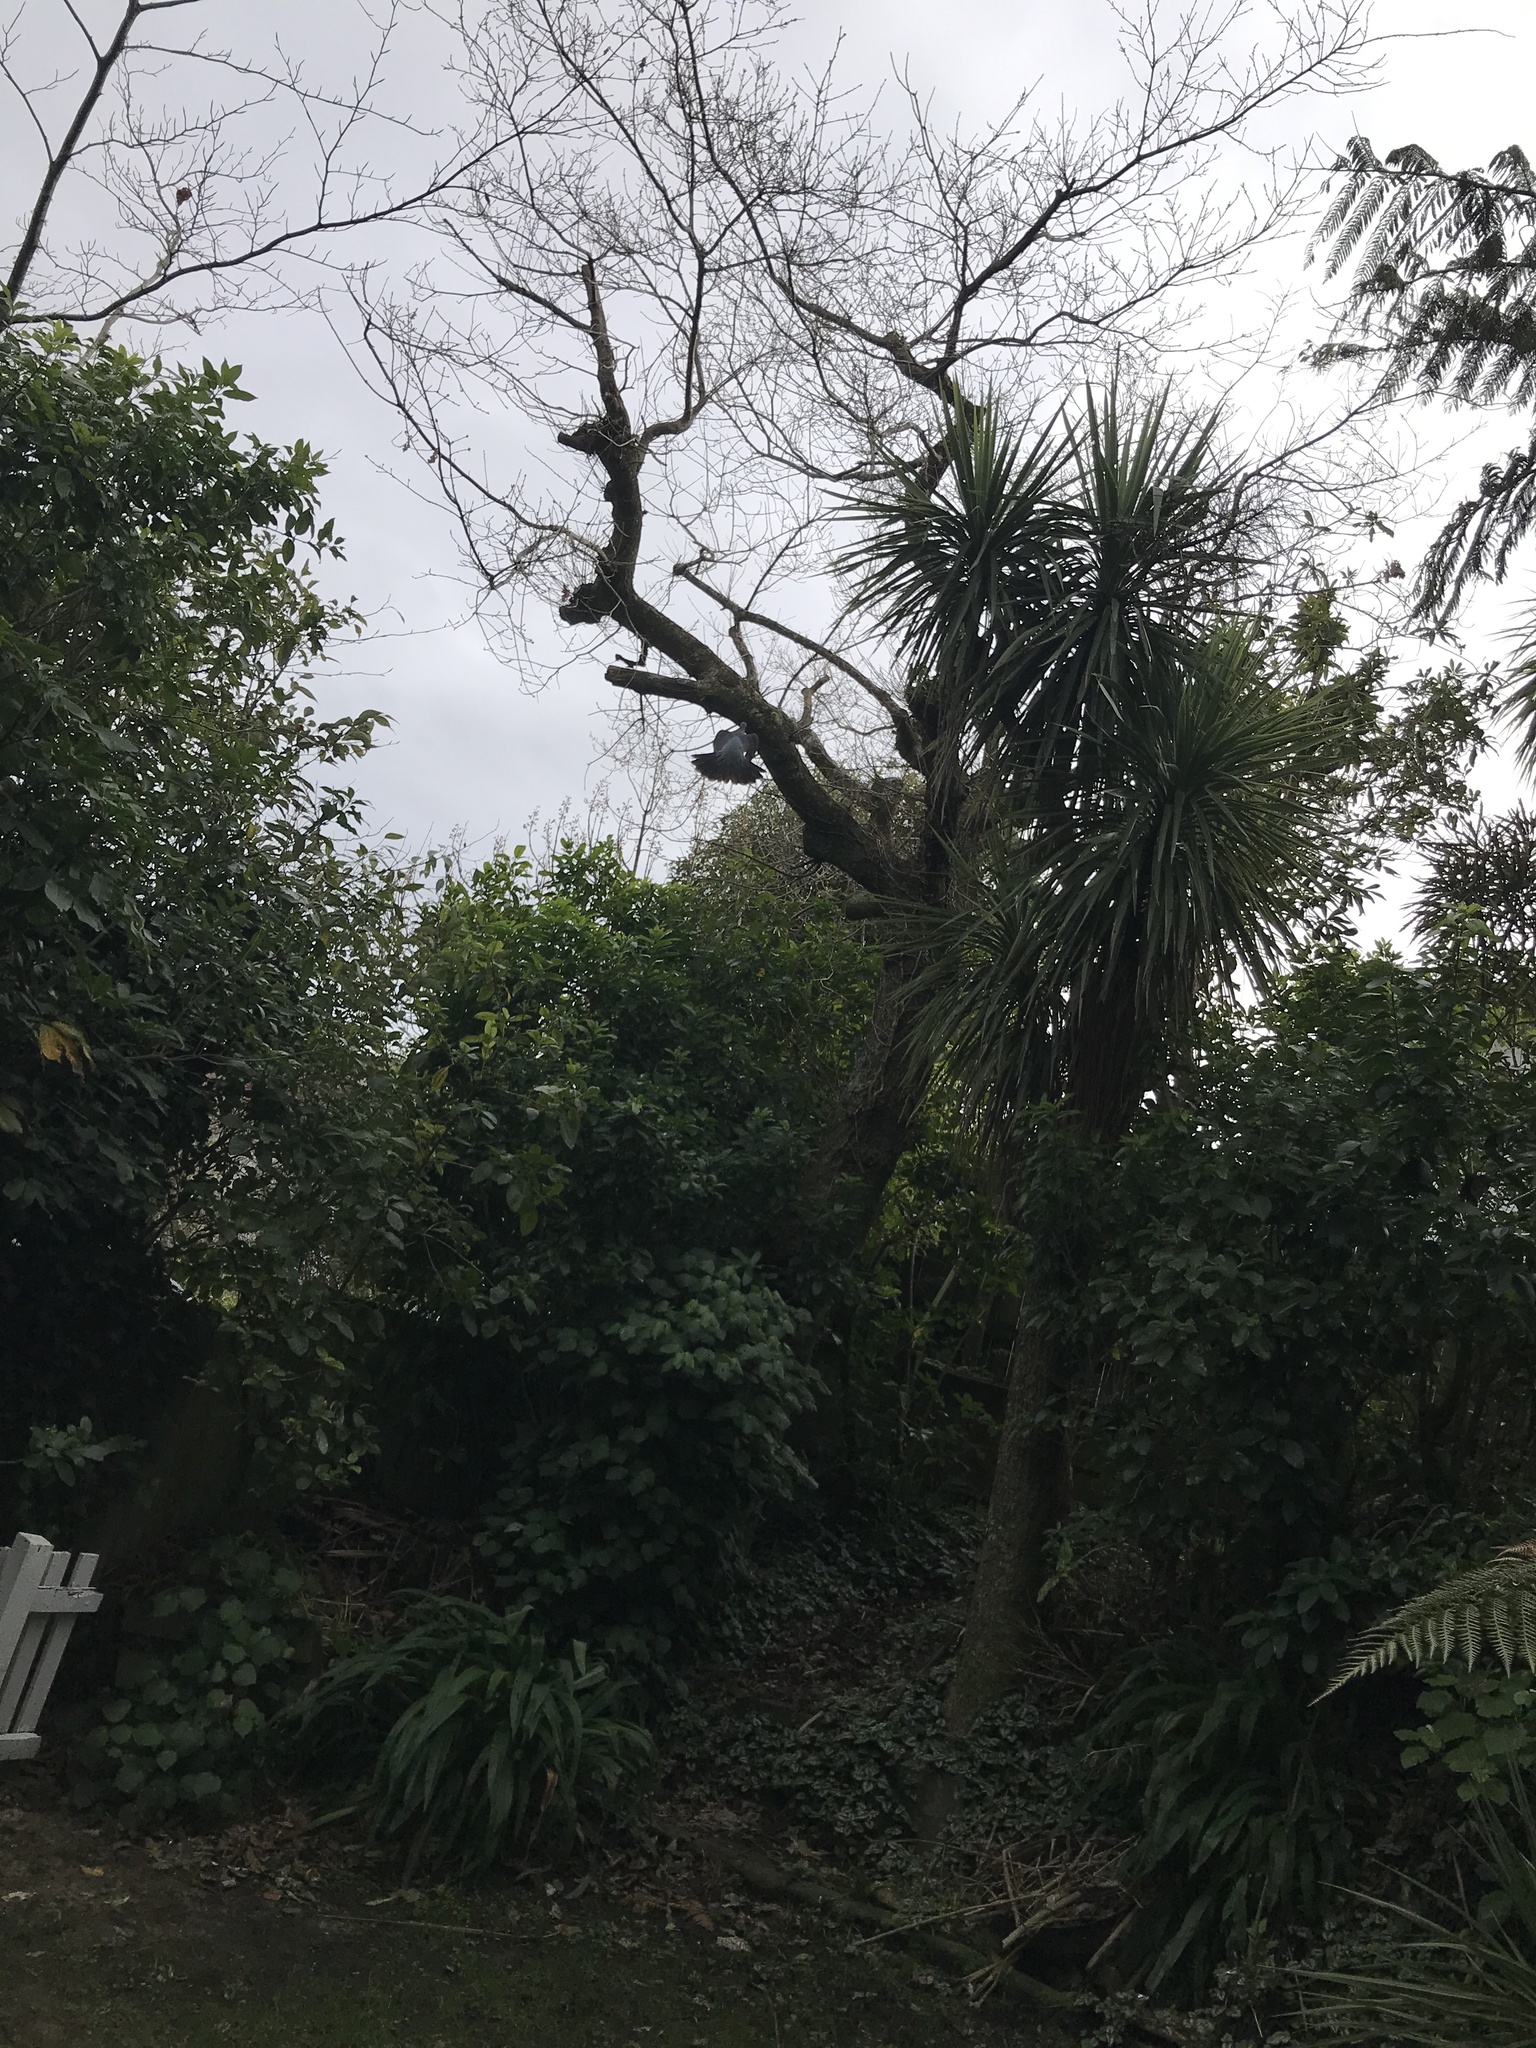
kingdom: Animalia
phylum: Chordata
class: Aves
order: Columbiformes
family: Columbidae
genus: Hemiphaga
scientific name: Hemiphaga novaeseelandiae
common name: New zealand pigeon
